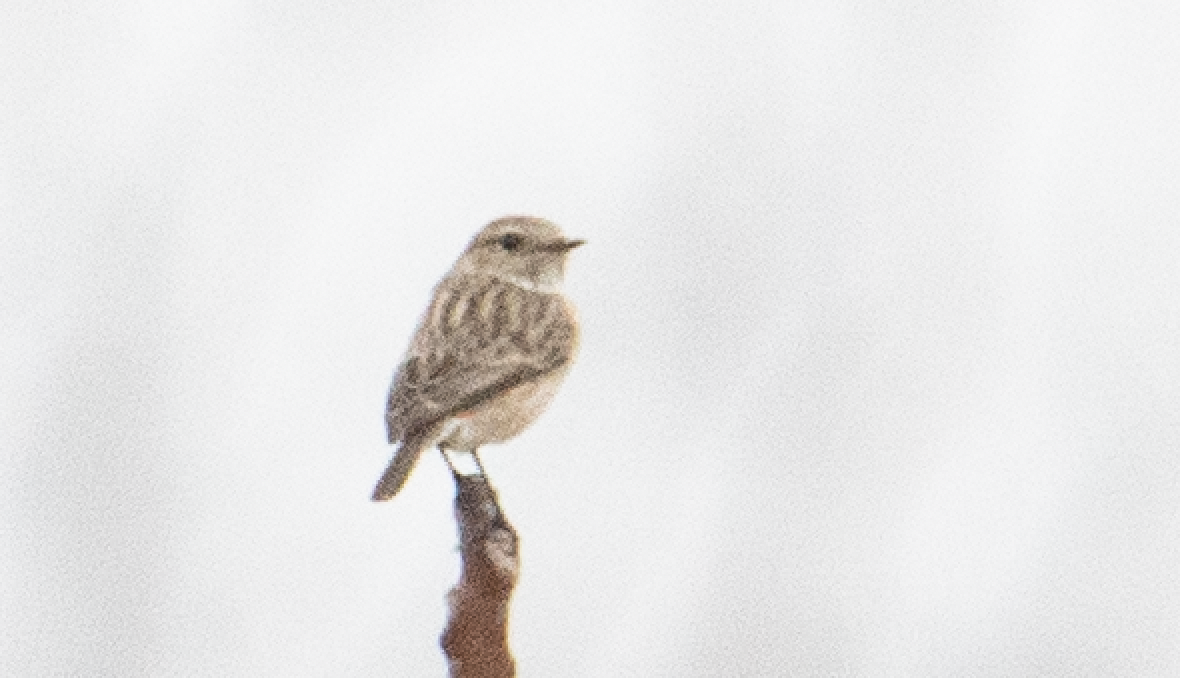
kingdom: Animalia
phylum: Chordata
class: Aves
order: Passeriformes
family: Muscicapidae
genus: Saxicola
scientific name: Saxicola rubicola
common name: European stonechat
